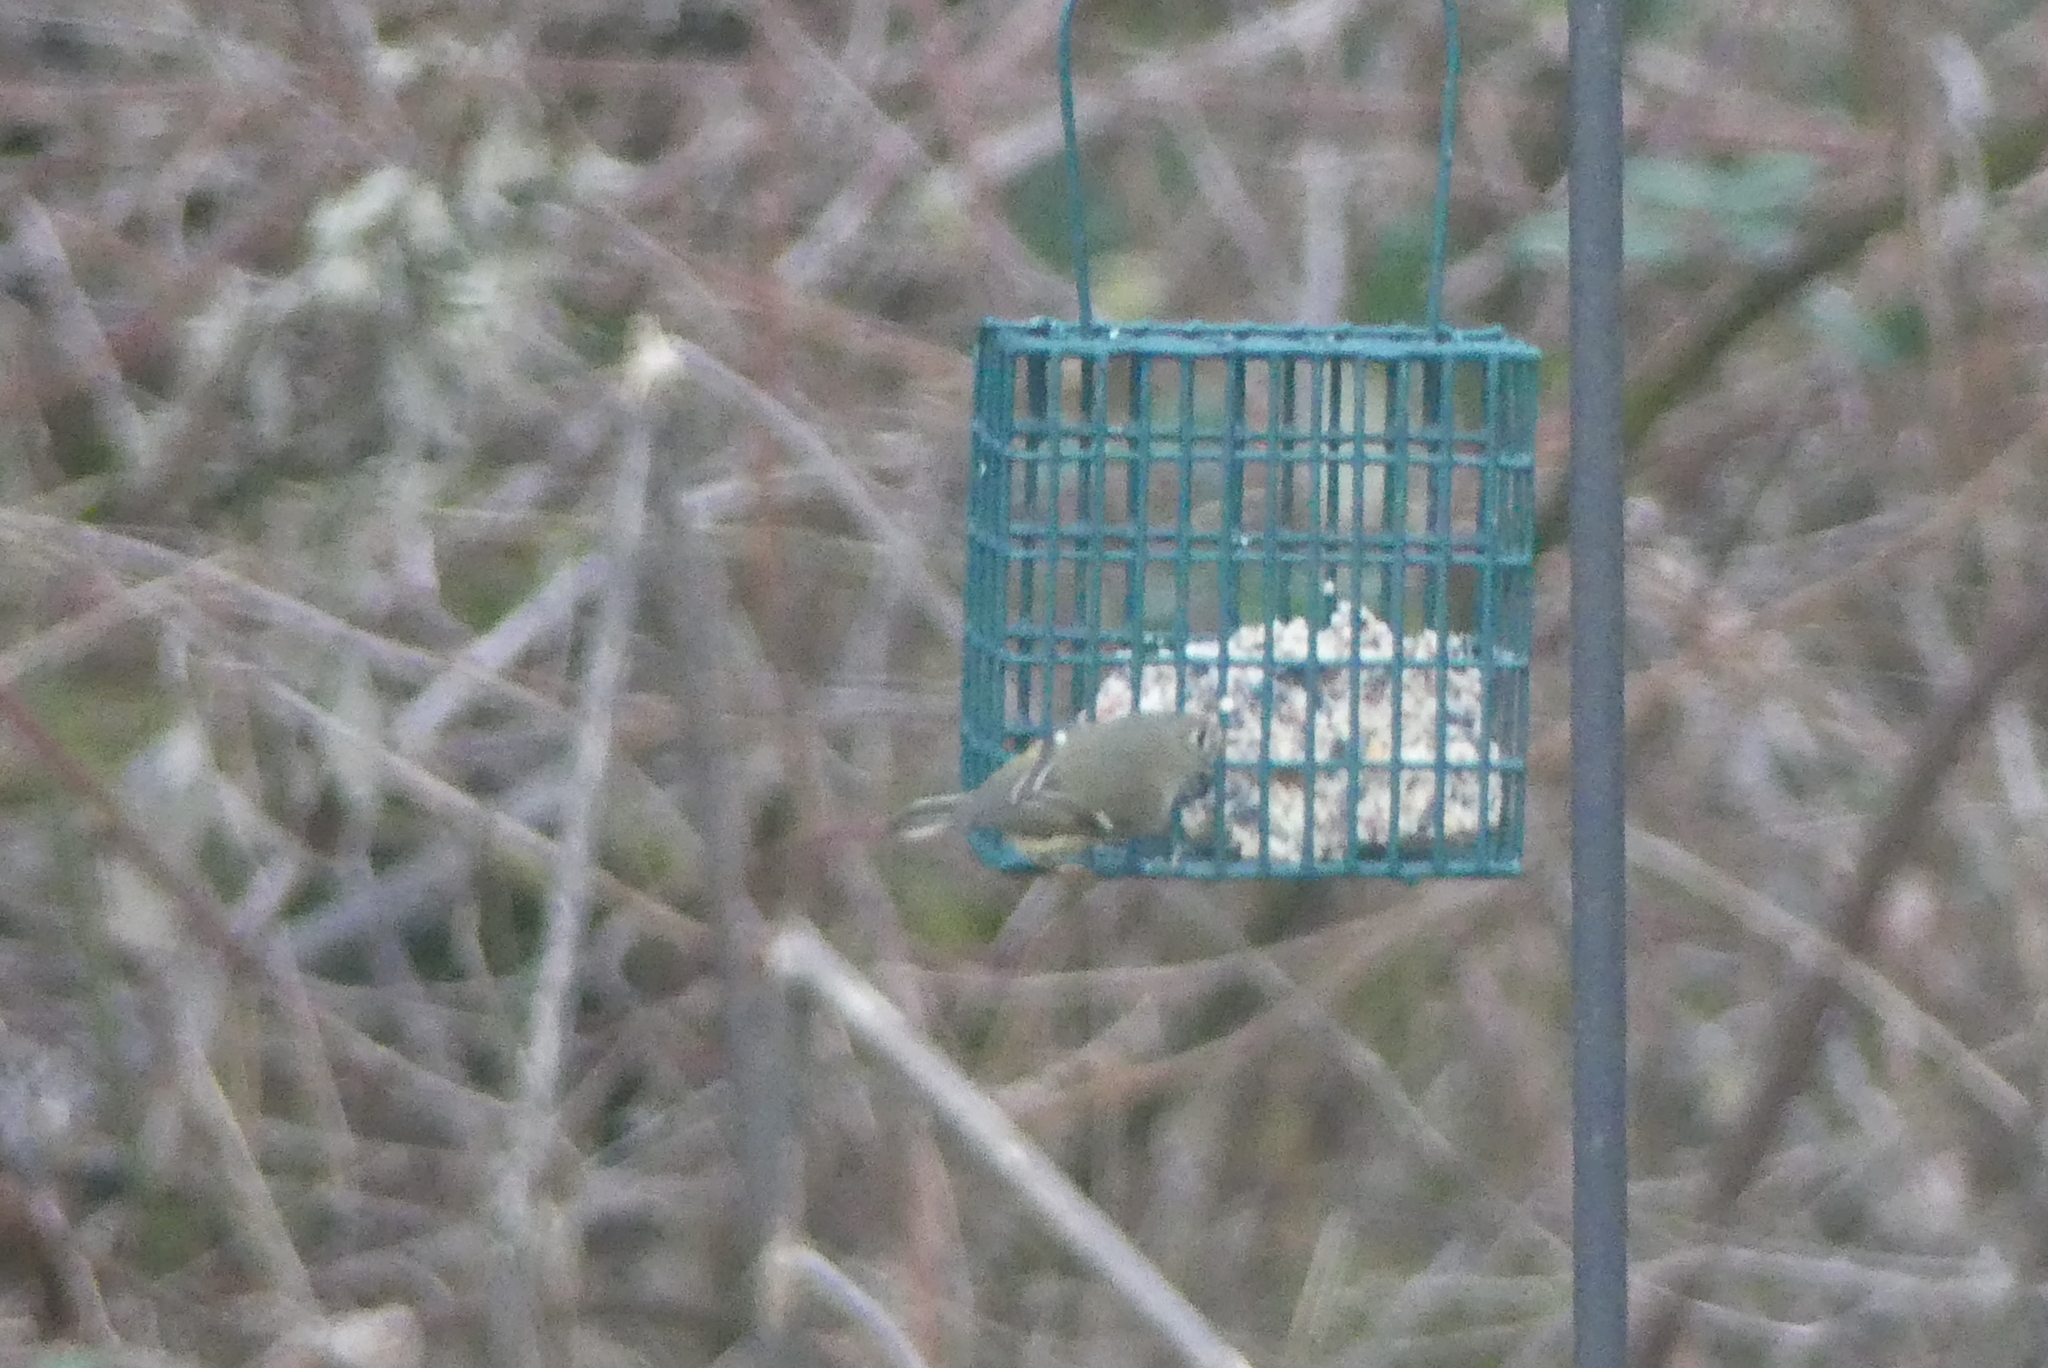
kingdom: Animalia
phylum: Chordata
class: Aves
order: Passeriformes
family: Regulidae
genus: Regulus
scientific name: Regulus calendula
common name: Ruby-crowned kinglet
